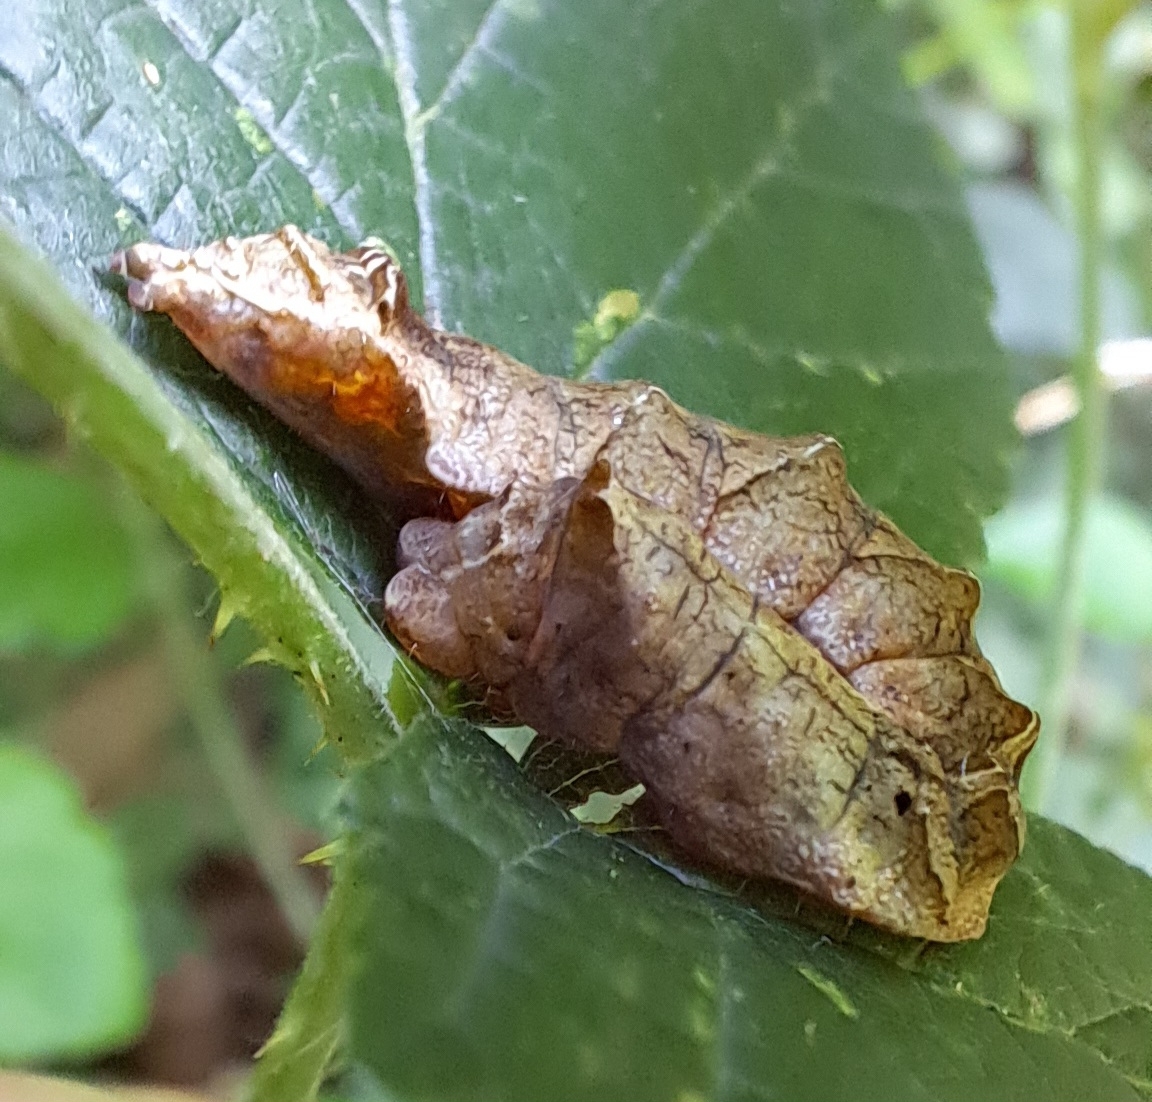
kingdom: Animalia
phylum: Arthropoda
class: Insecta
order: Lepidoptera
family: Drepanidae
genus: Thyatira
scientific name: Thyatira batis
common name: Peach blossom
